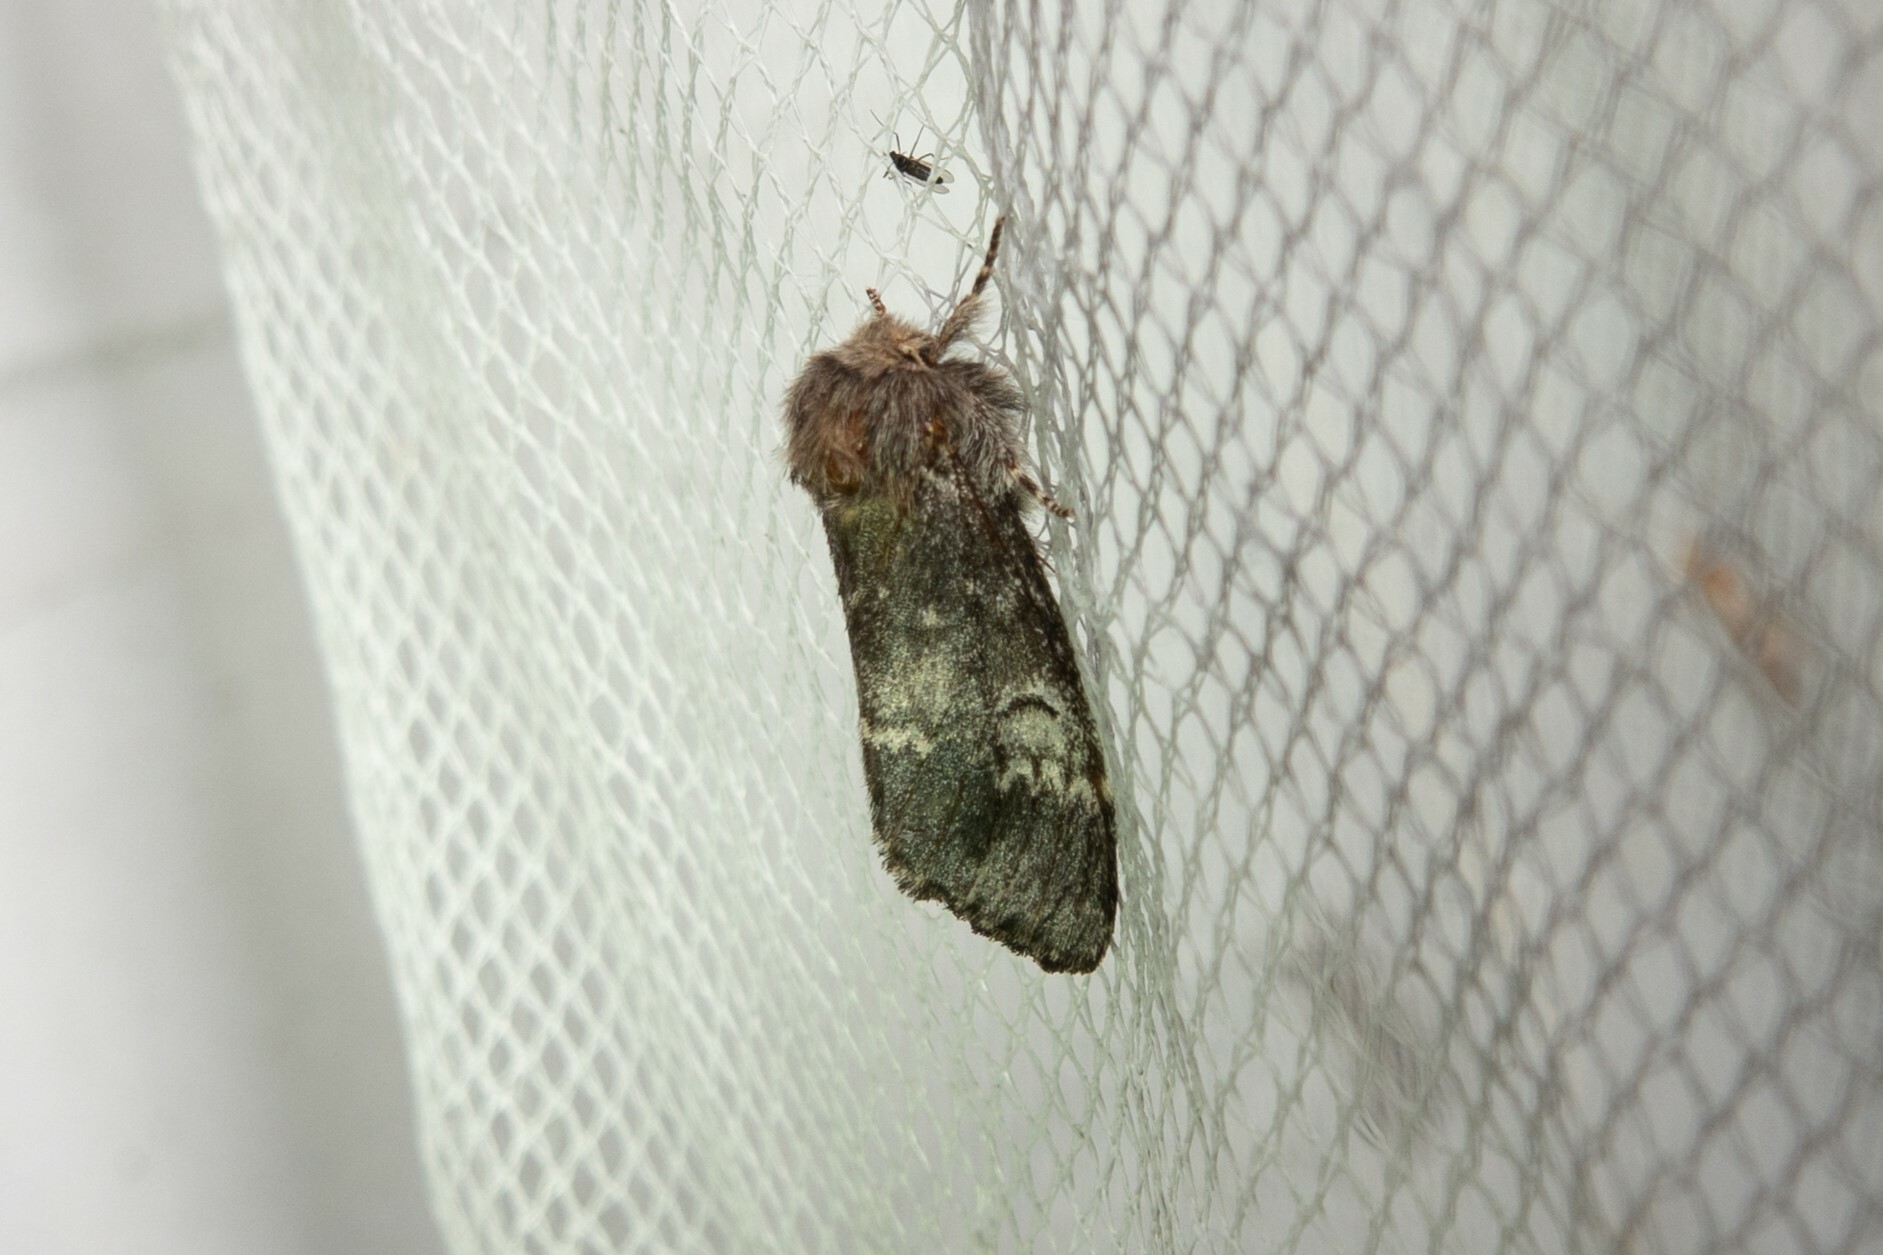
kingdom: Animalia
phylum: Arthropoda
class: Insecta
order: Lepidoptera
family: Notodontidae
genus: Drymonia
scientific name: Drymonia ruficornis
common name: Lunar marbled brown
